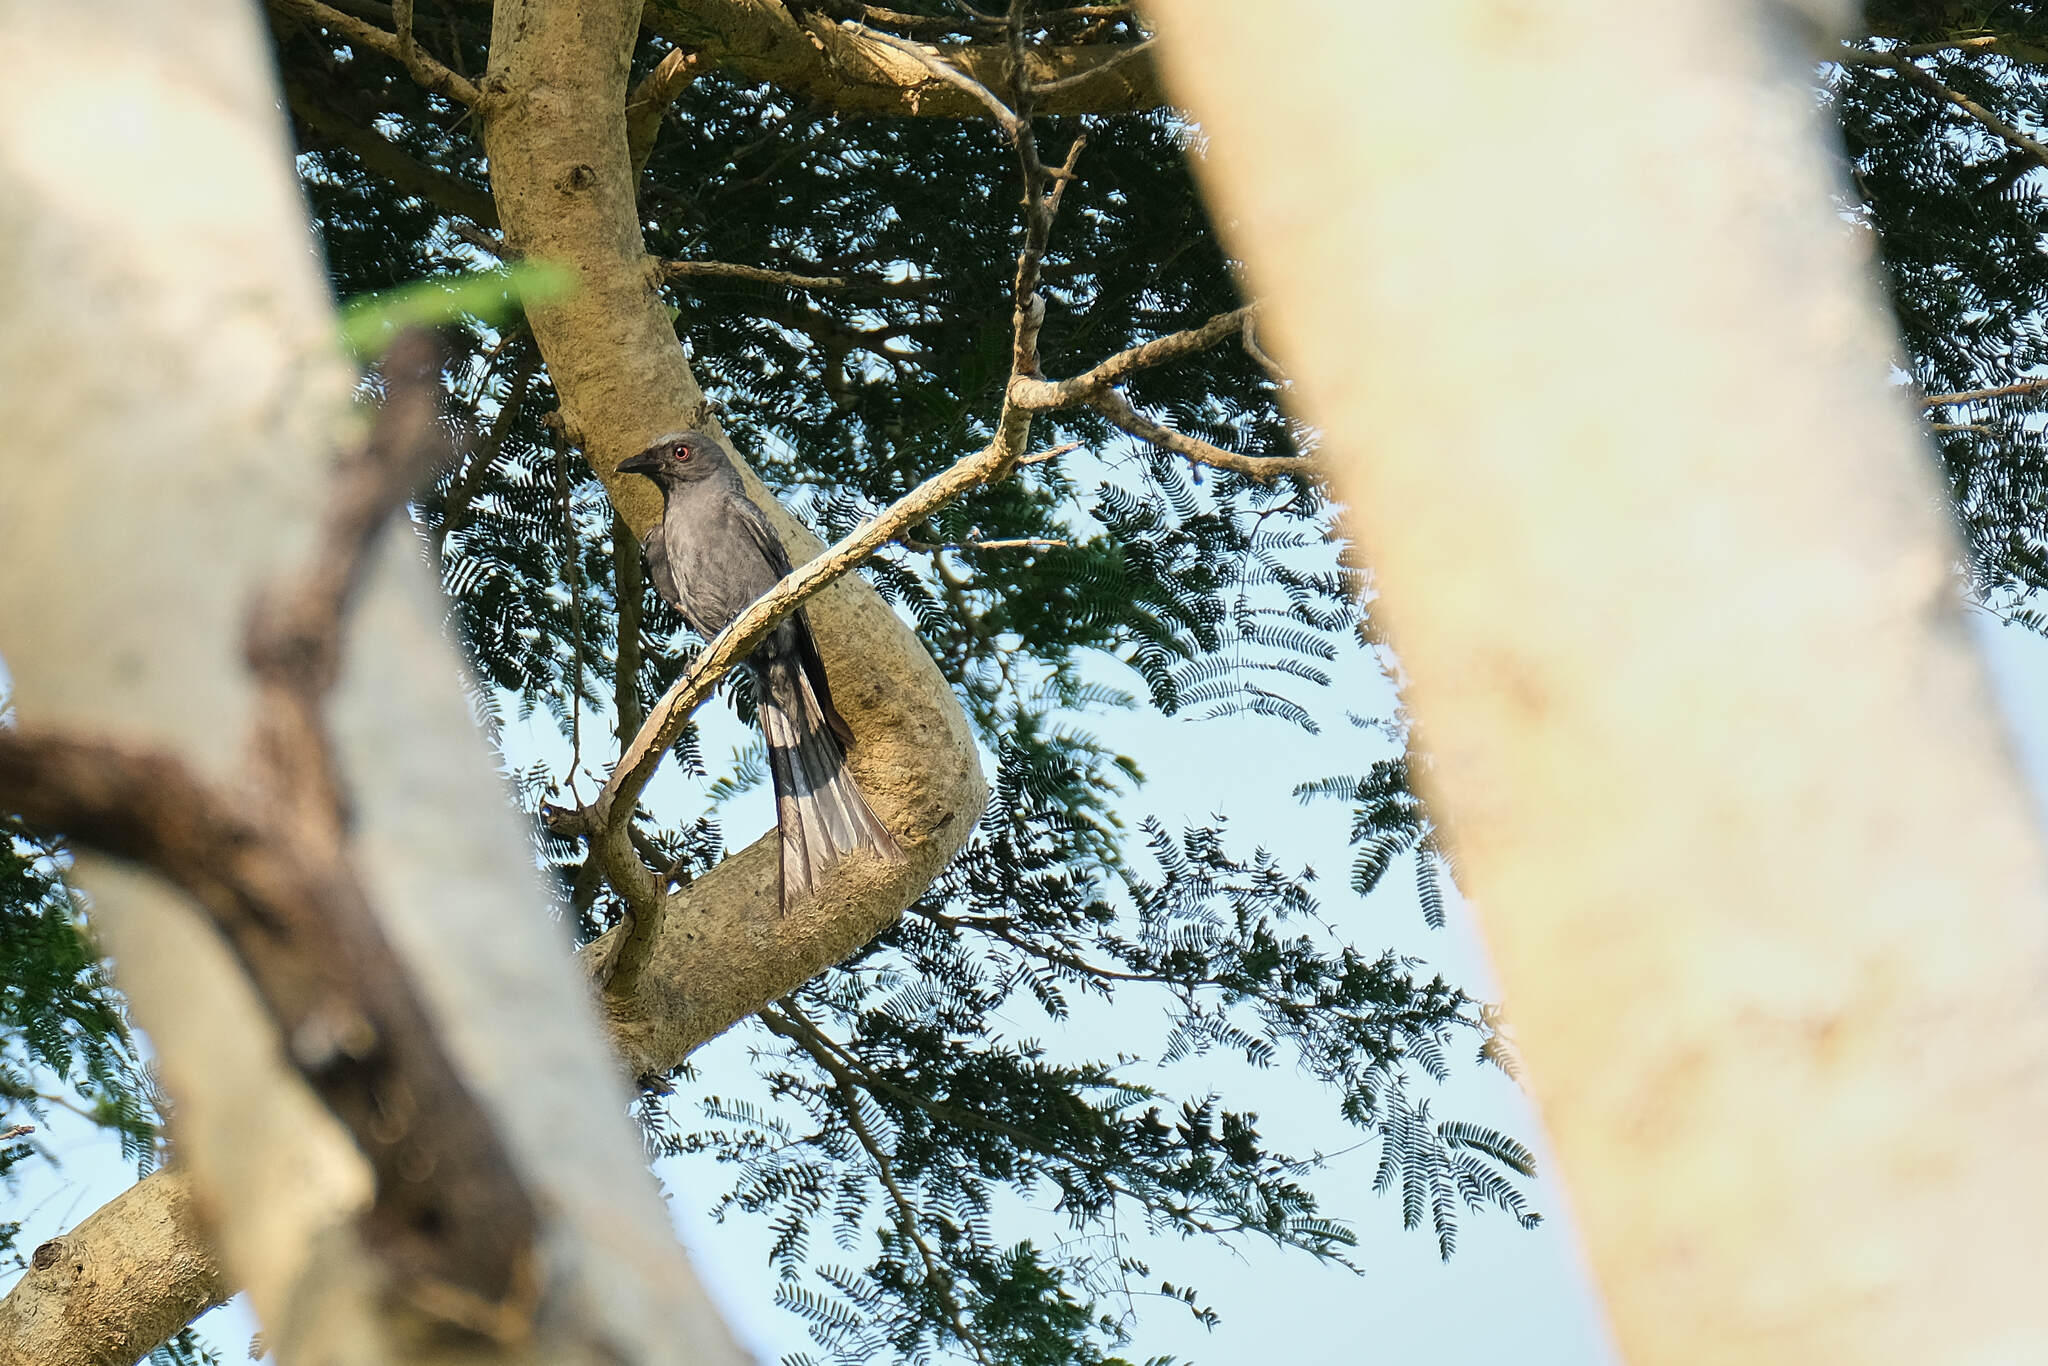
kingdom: Animalia
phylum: Chordata
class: Aves
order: Passeriformes
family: Dicruridae
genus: Dicrurus
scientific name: Dicrurus leucophaeus
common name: Ashy drongo
